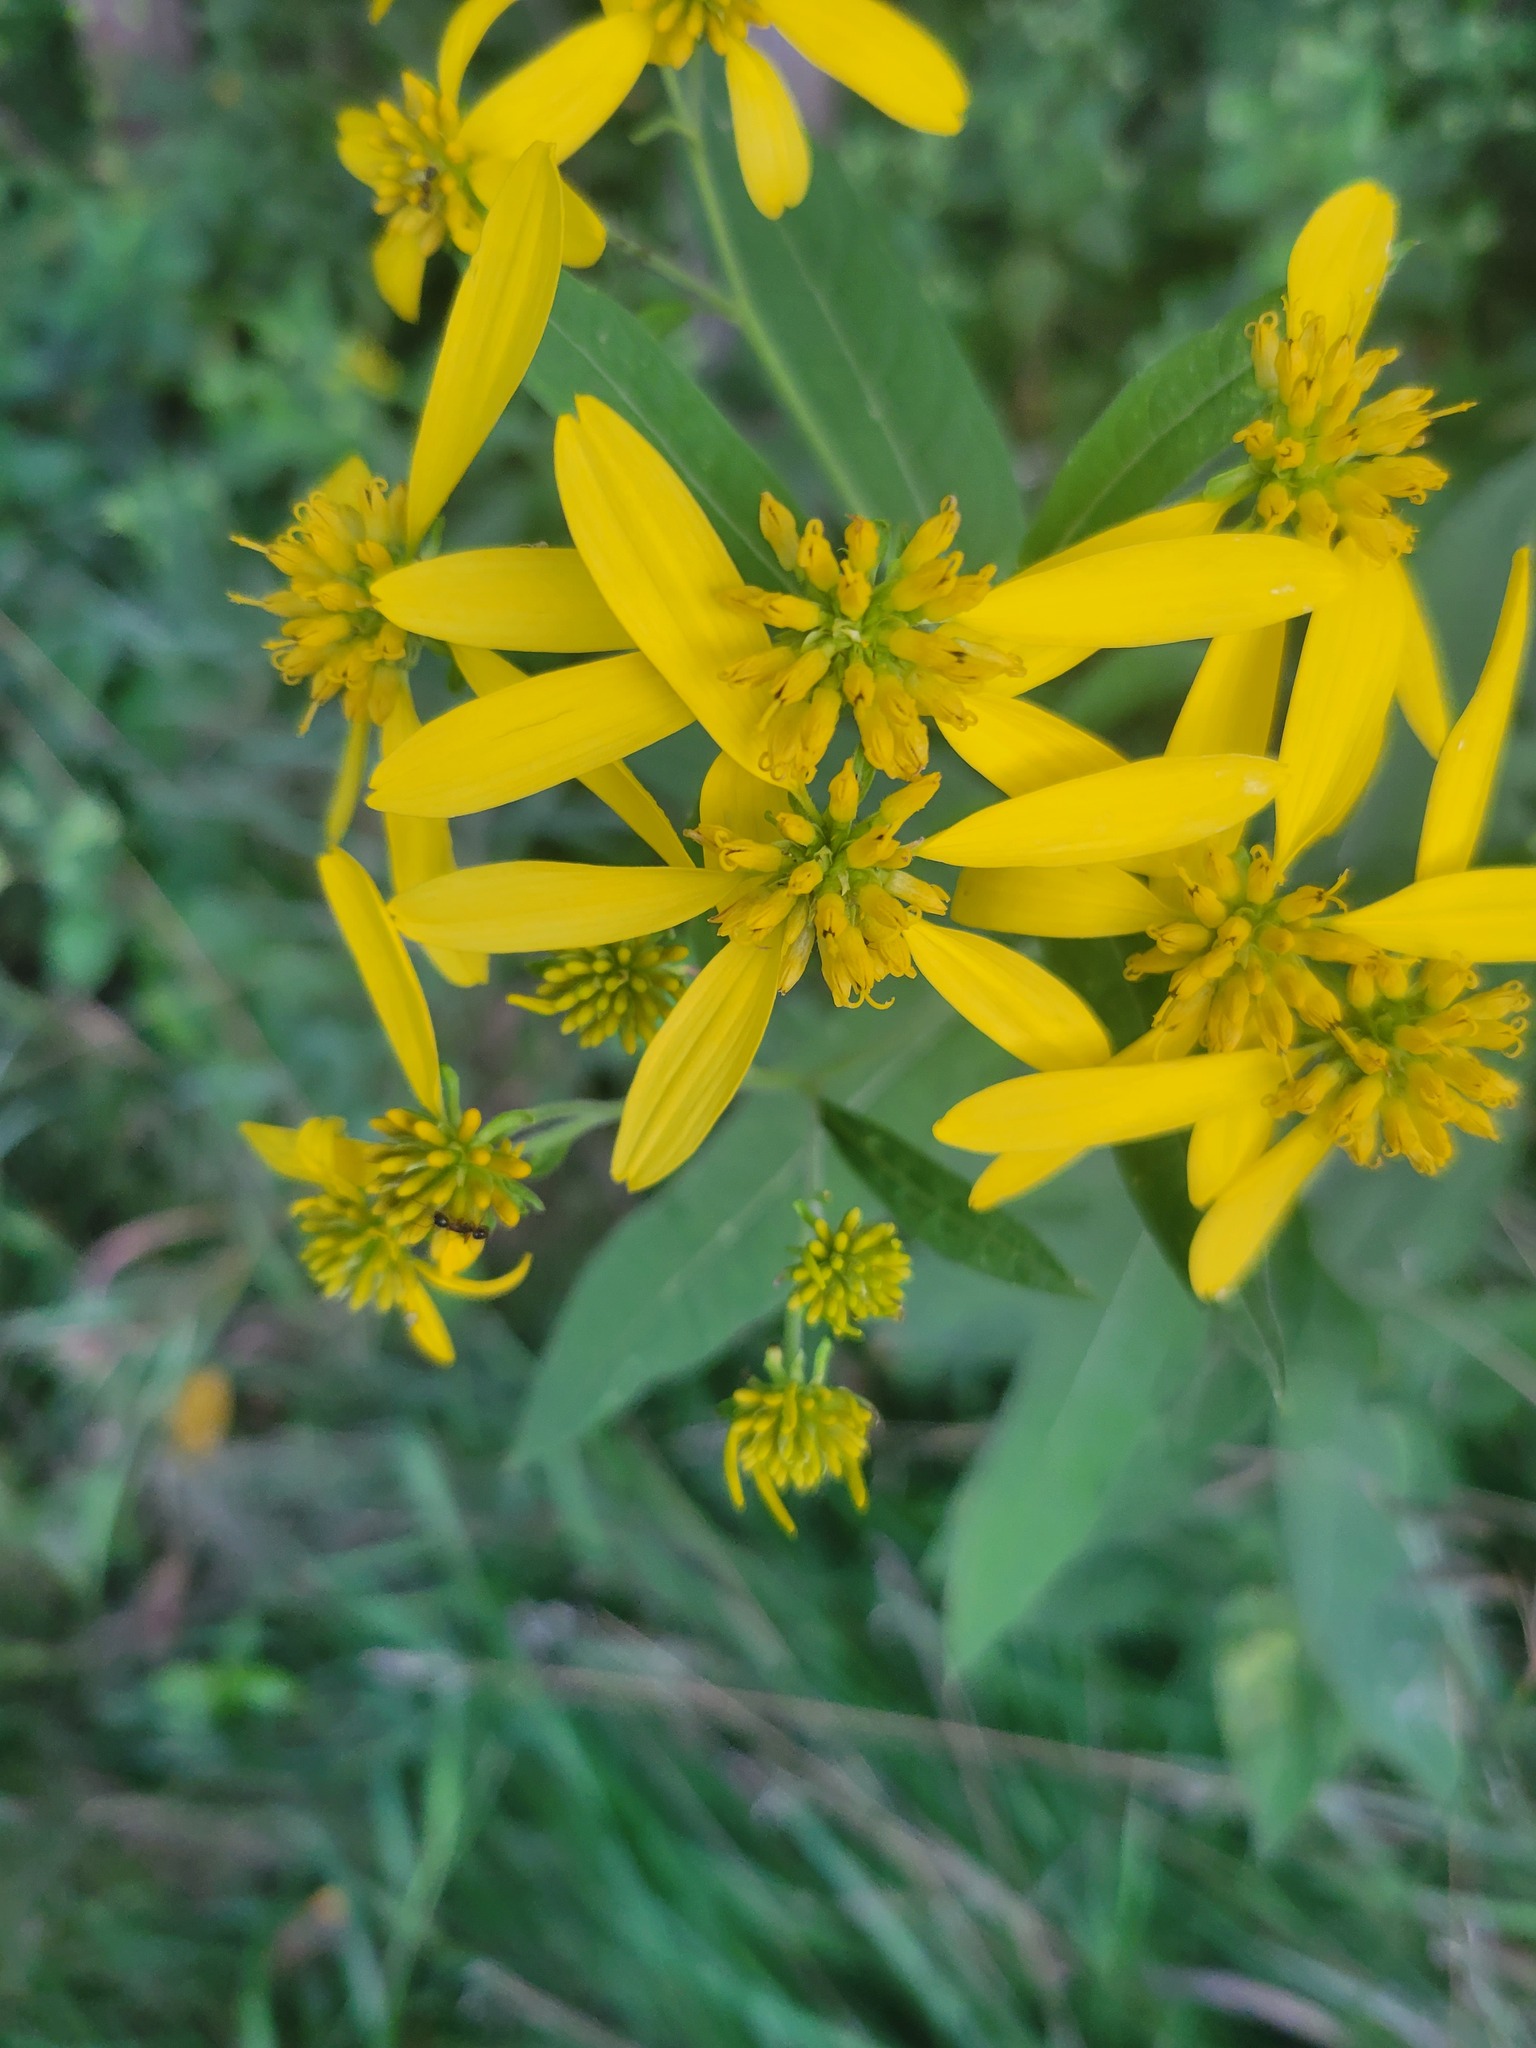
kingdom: Plantae
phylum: Tracheophyta
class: Magnoliopsida
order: Asterales
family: Asteraceae
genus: Verbesina
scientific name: Verbesina alternifolia
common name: Wingstem
